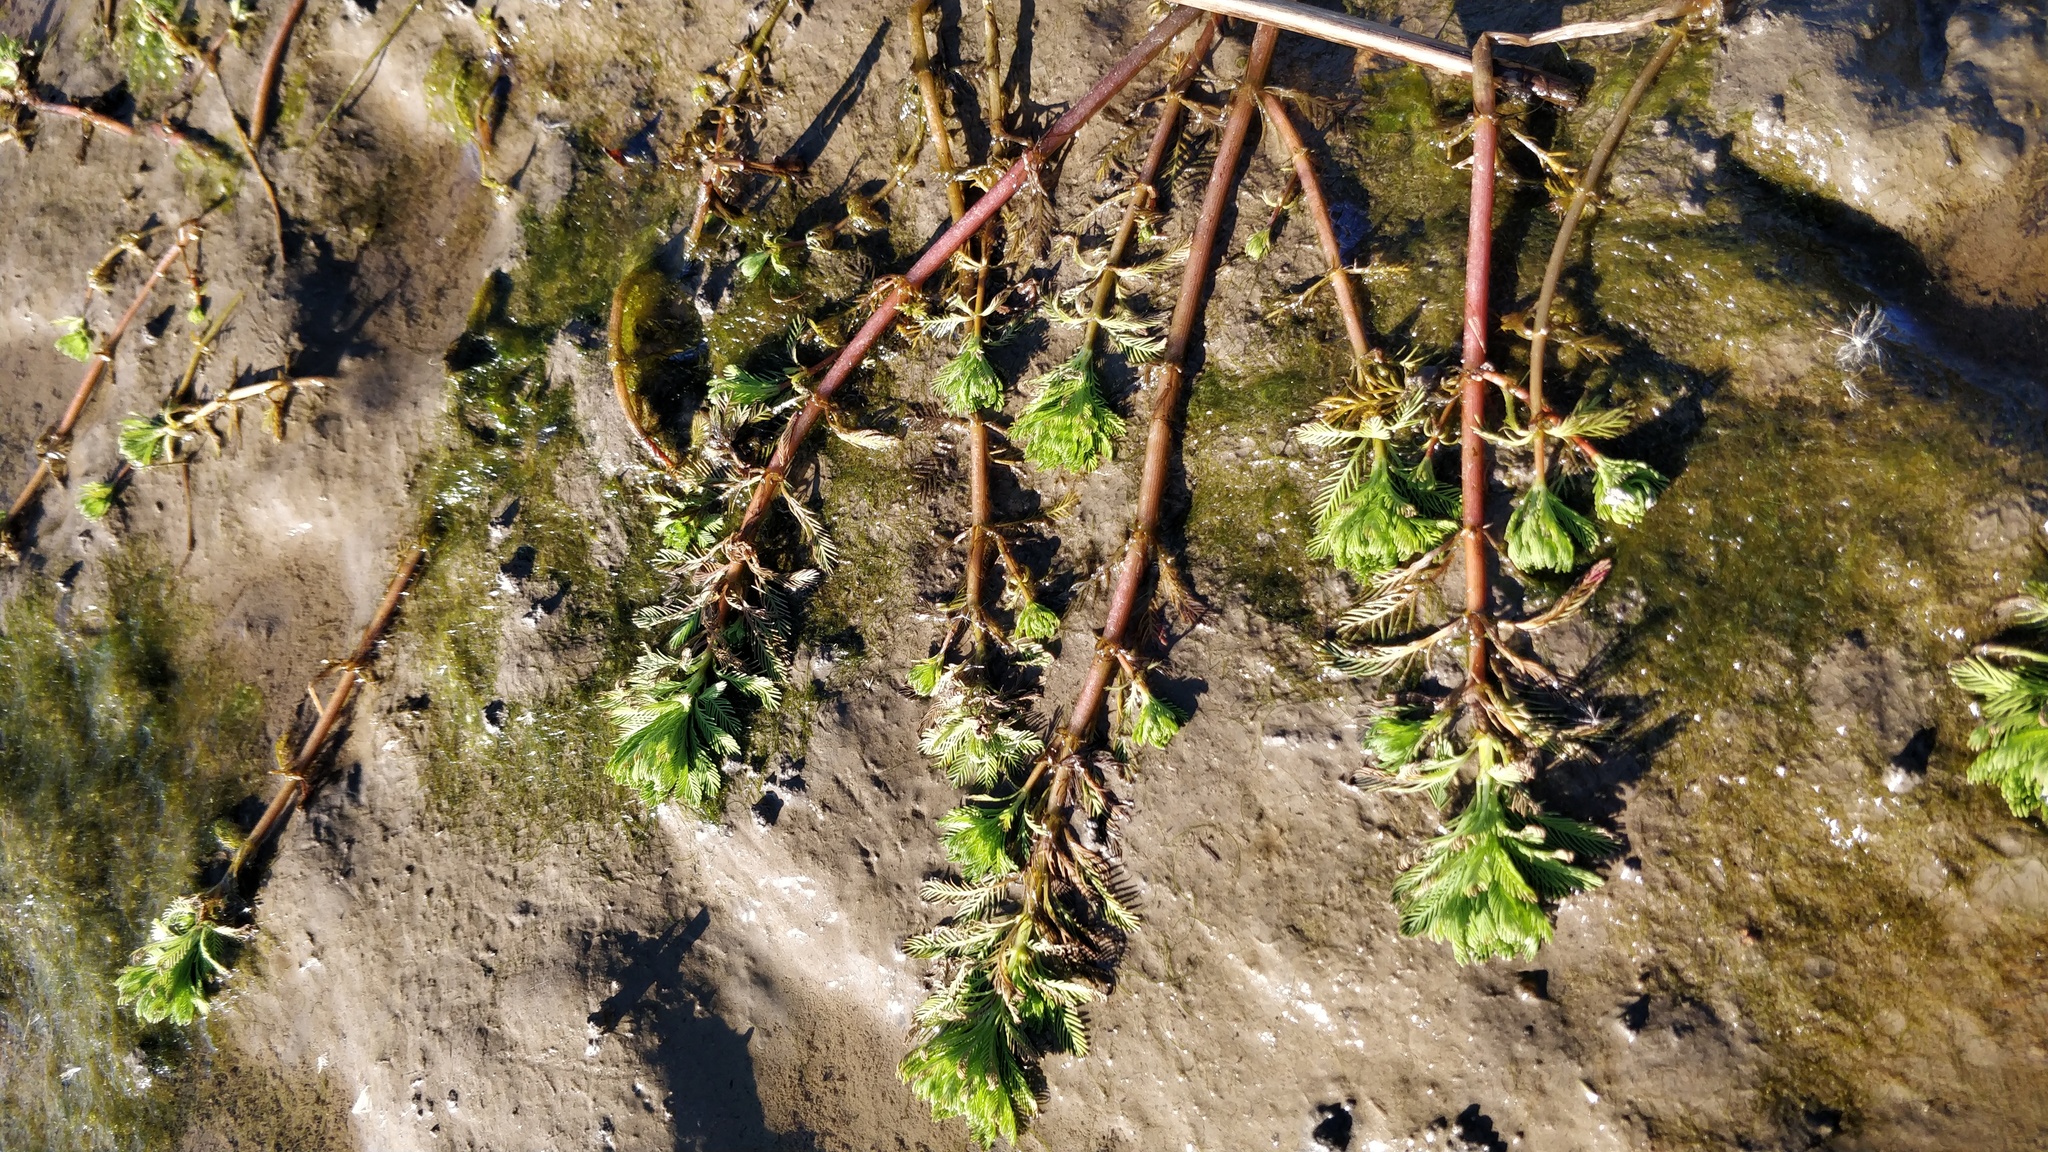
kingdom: Plantae
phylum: Tracheophyta
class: Magnoliopsida
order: Saxifragales
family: Haloragaceae
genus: Myriophyllum
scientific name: Myriophyllum aquaticum
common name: Parrot's feather
